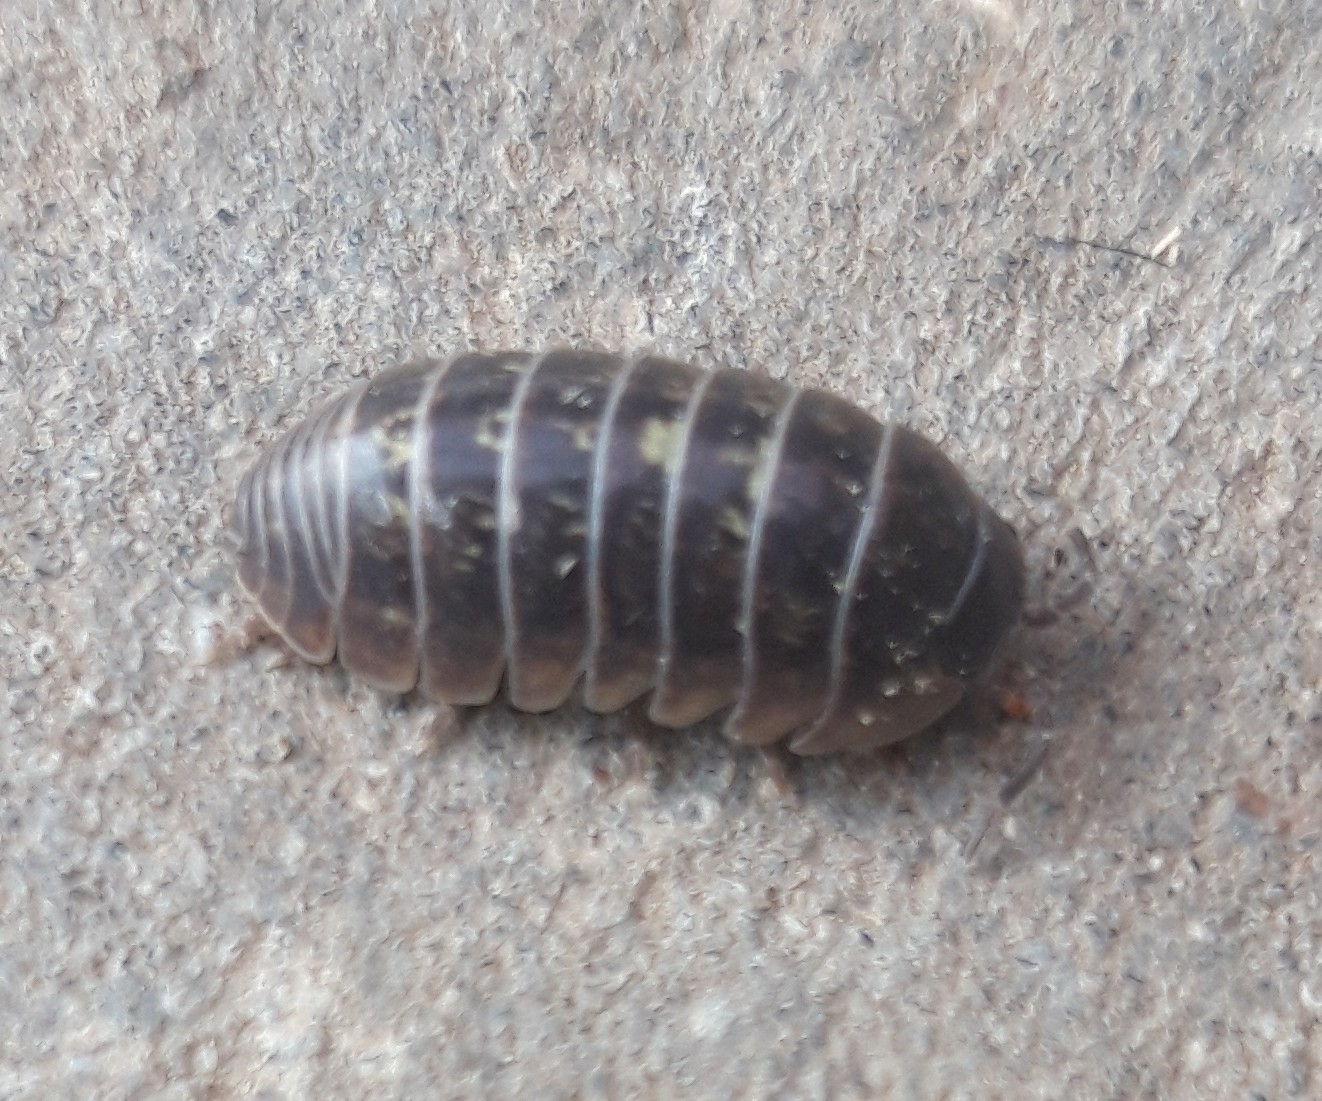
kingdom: Animalia
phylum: Arthropoda
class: Malacostraca
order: Isopoda
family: Armadillidiidae
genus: Armadillidium
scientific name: Armadillidium vulgare
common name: Common pill woodlouse
